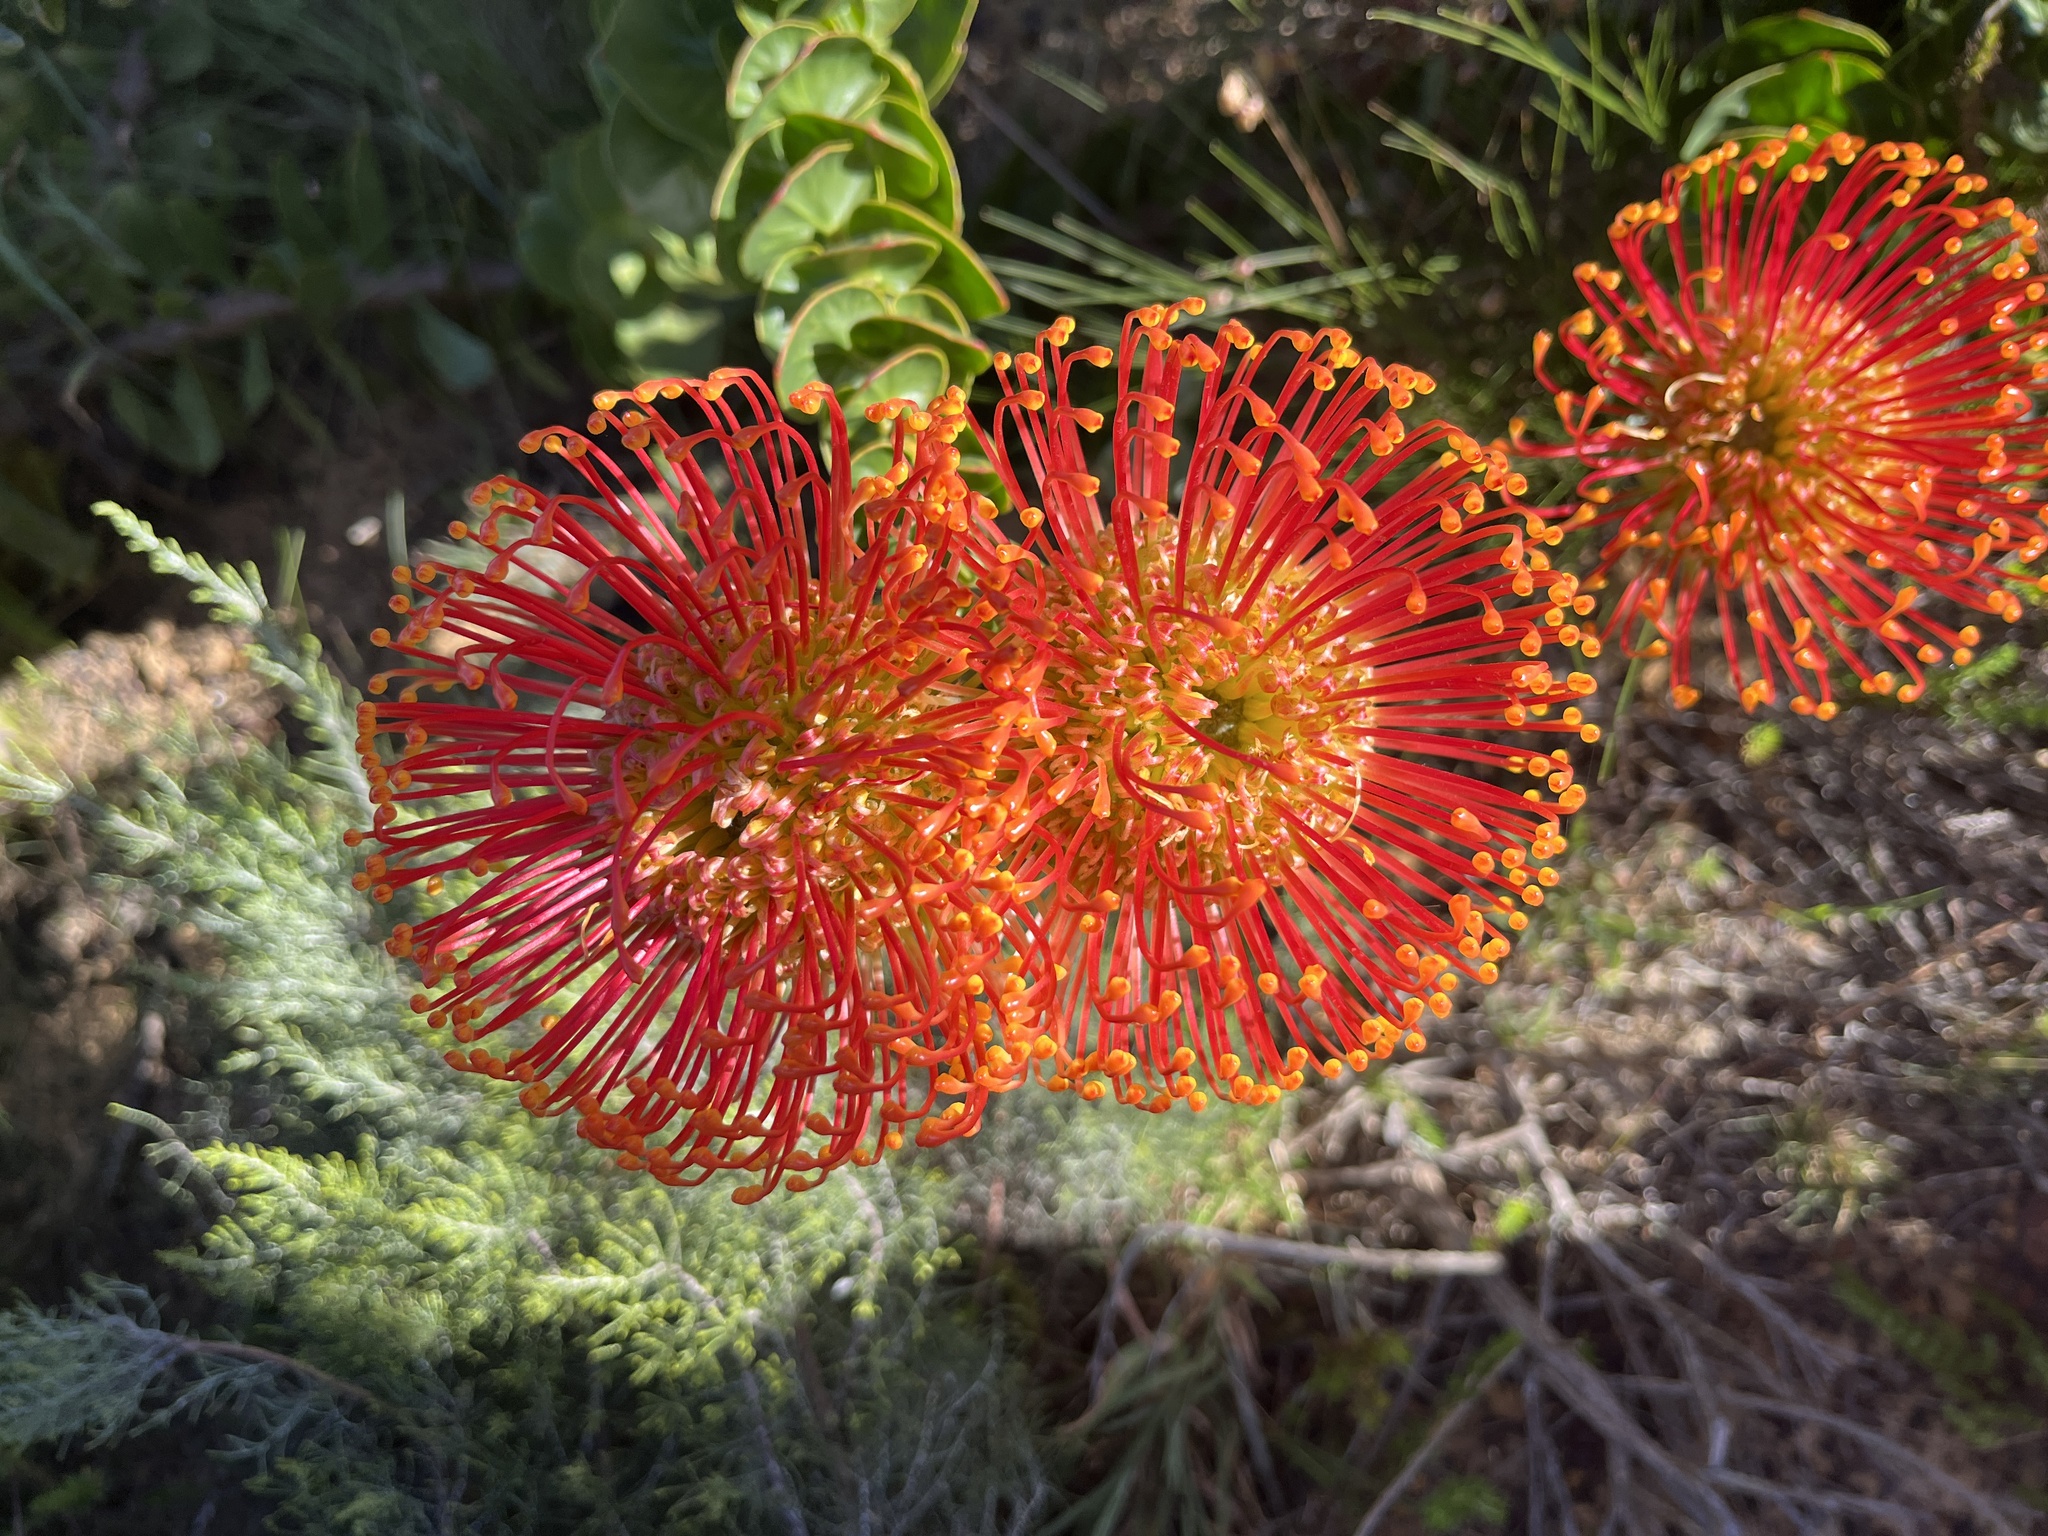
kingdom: Plantae
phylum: Tracheophyta
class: Magnoliopsida
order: Proteales
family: Proteaceae
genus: Leucospermum
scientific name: Leucospermum cordifolium
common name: Red pincushion-protea
